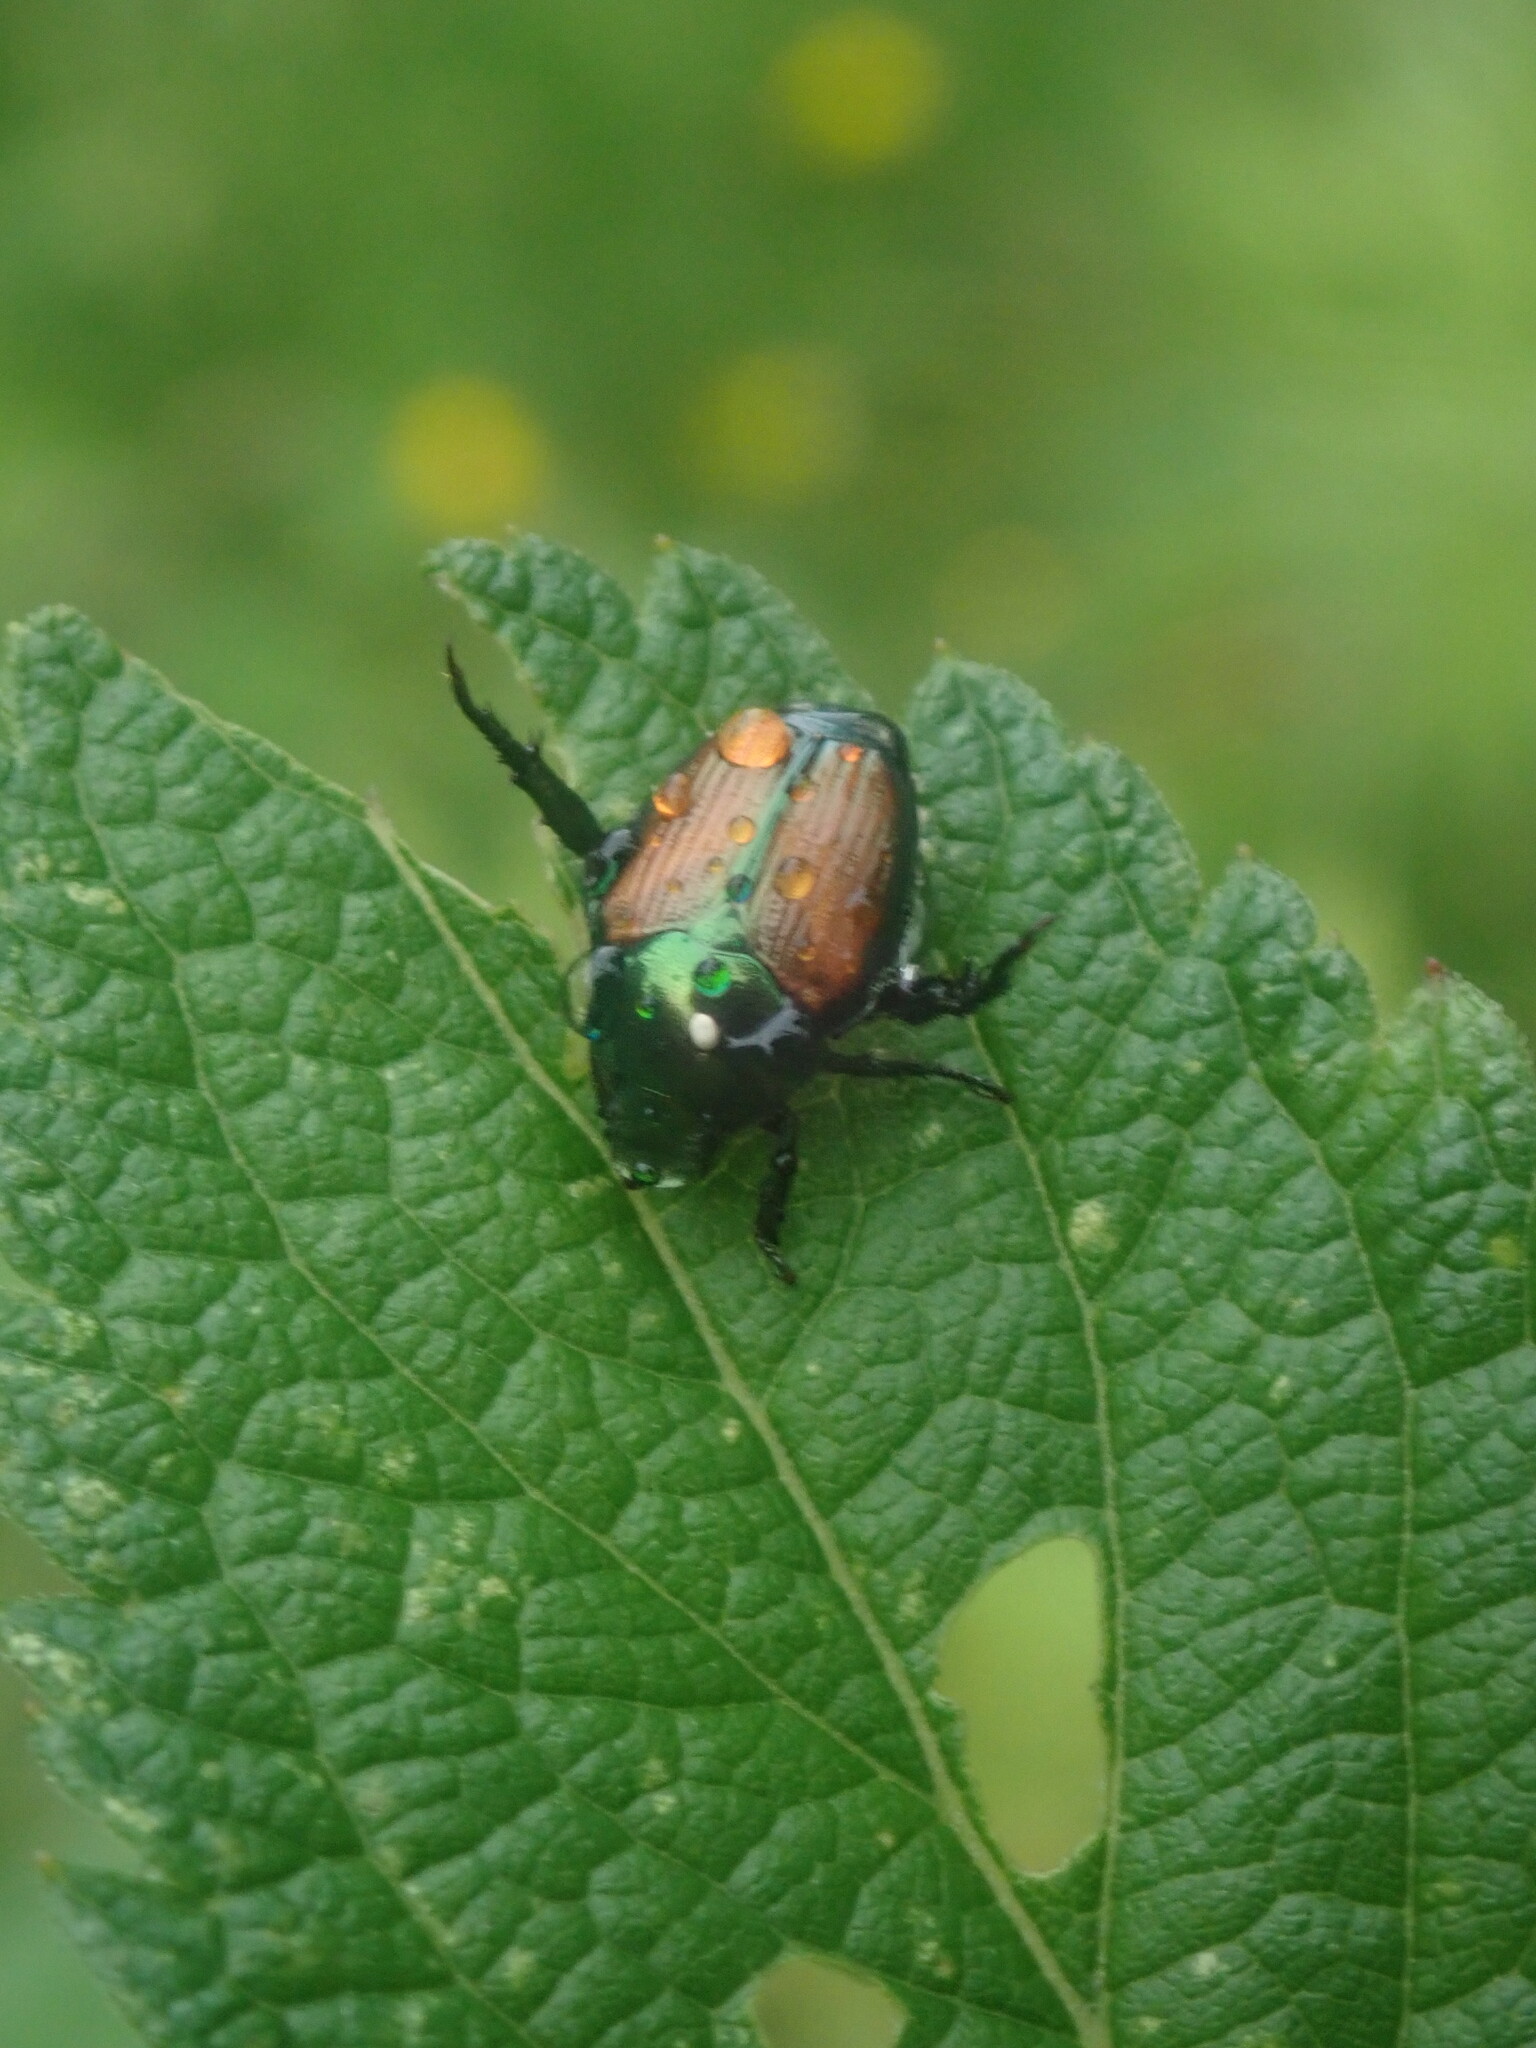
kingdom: Animalia
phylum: Arthropoda
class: Insecta
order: Diptera
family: Tachinidae
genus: Istocheta
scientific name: Istocheta aldrichi
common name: Parasitic wasp
